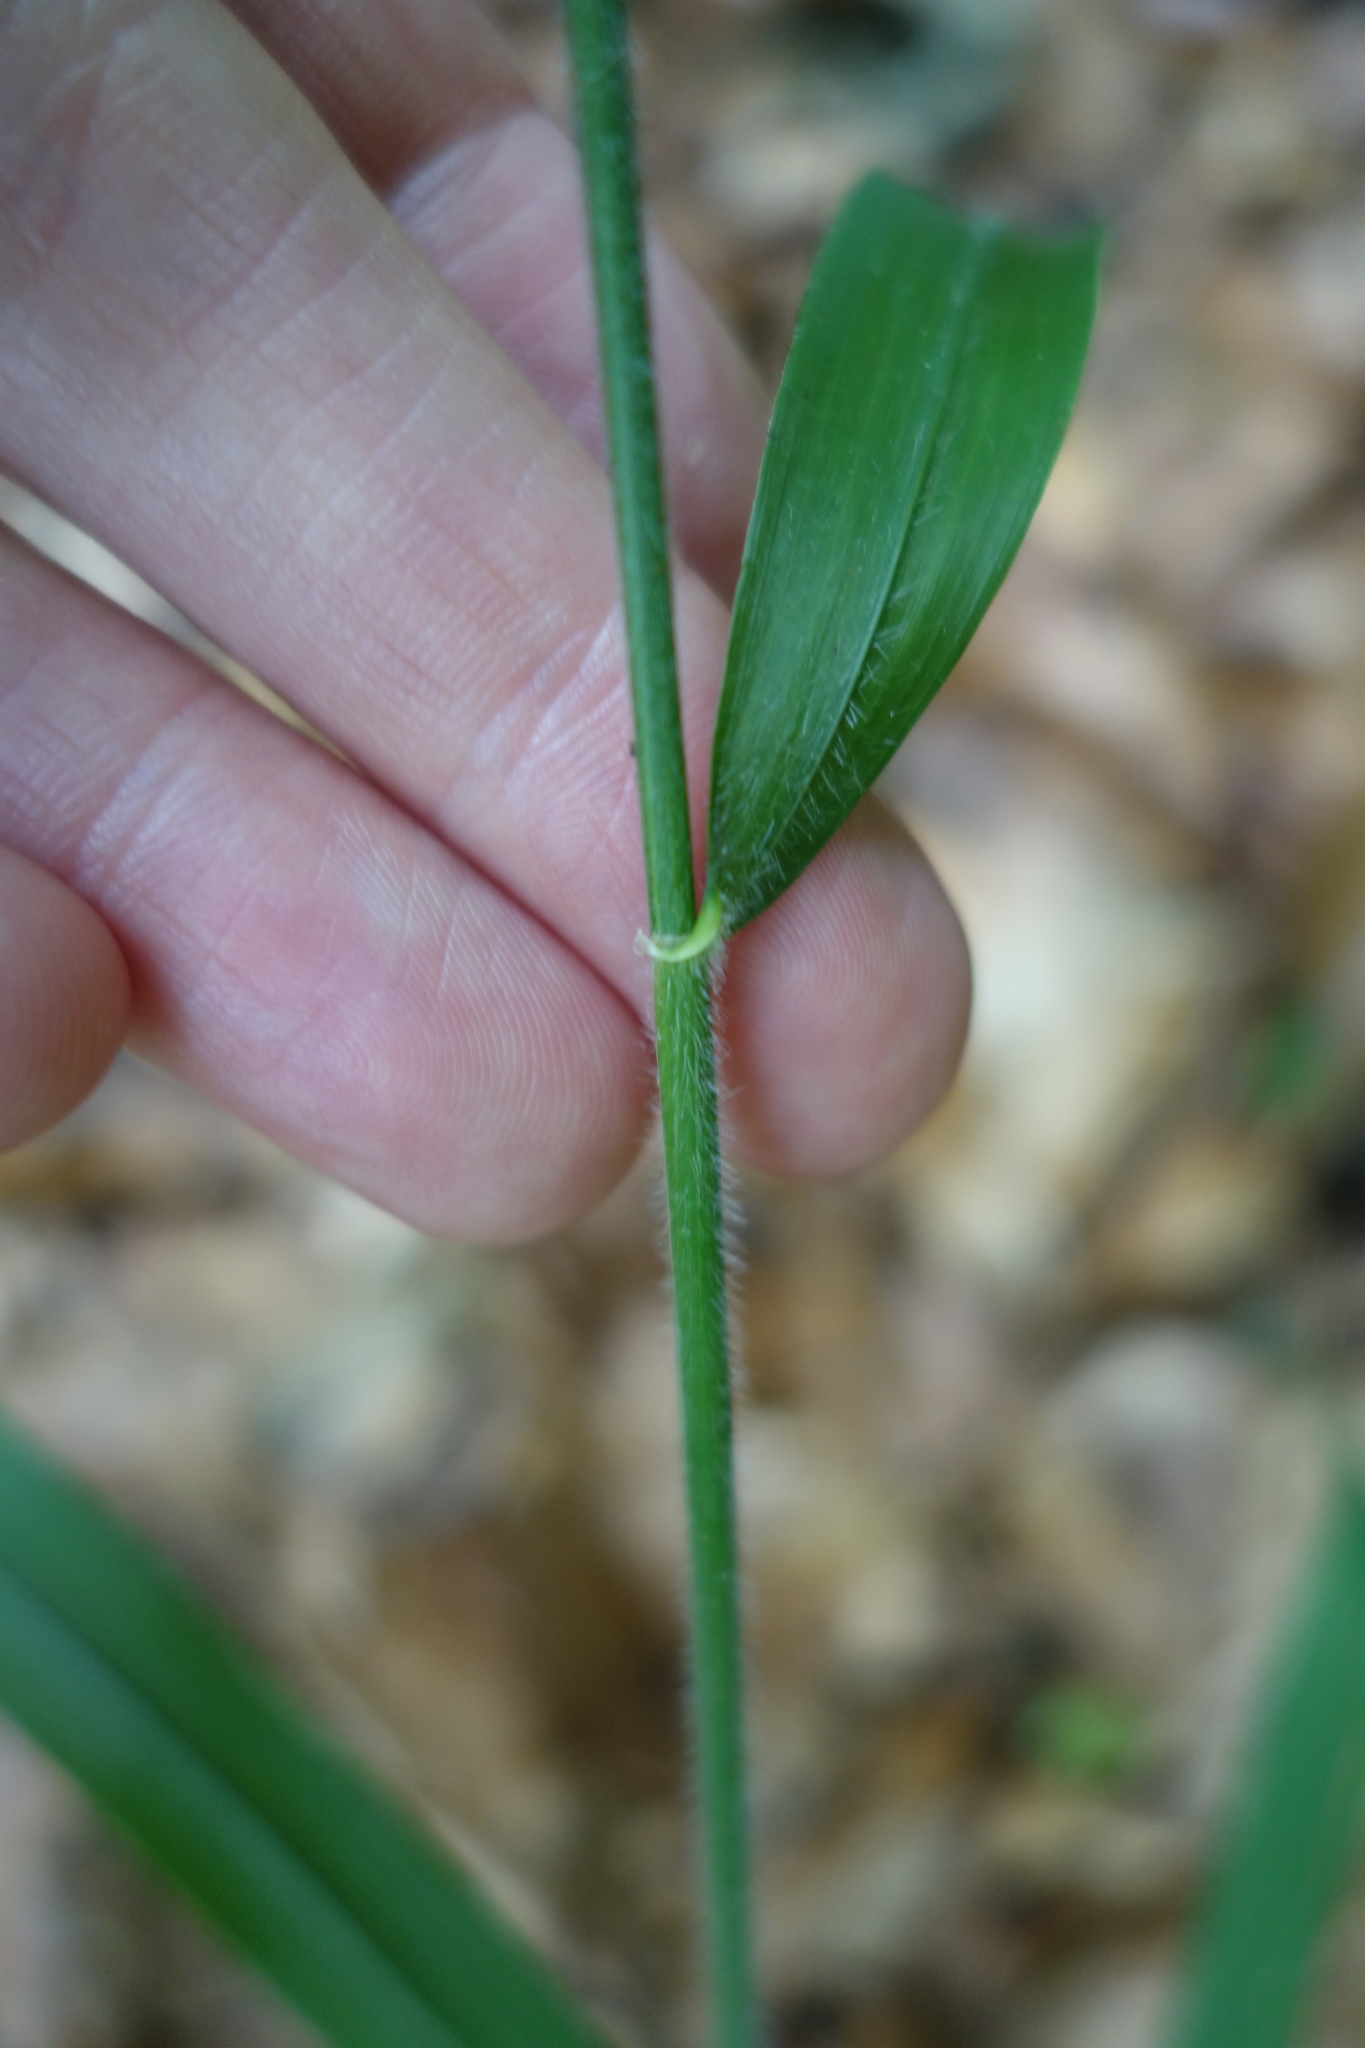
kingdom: Plantae
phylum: Tracheophyta
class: Liliopsida
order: Poales
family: Poaceae
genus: Hordelymus
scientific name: Hordelymus europaeus
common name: Wood-barley
